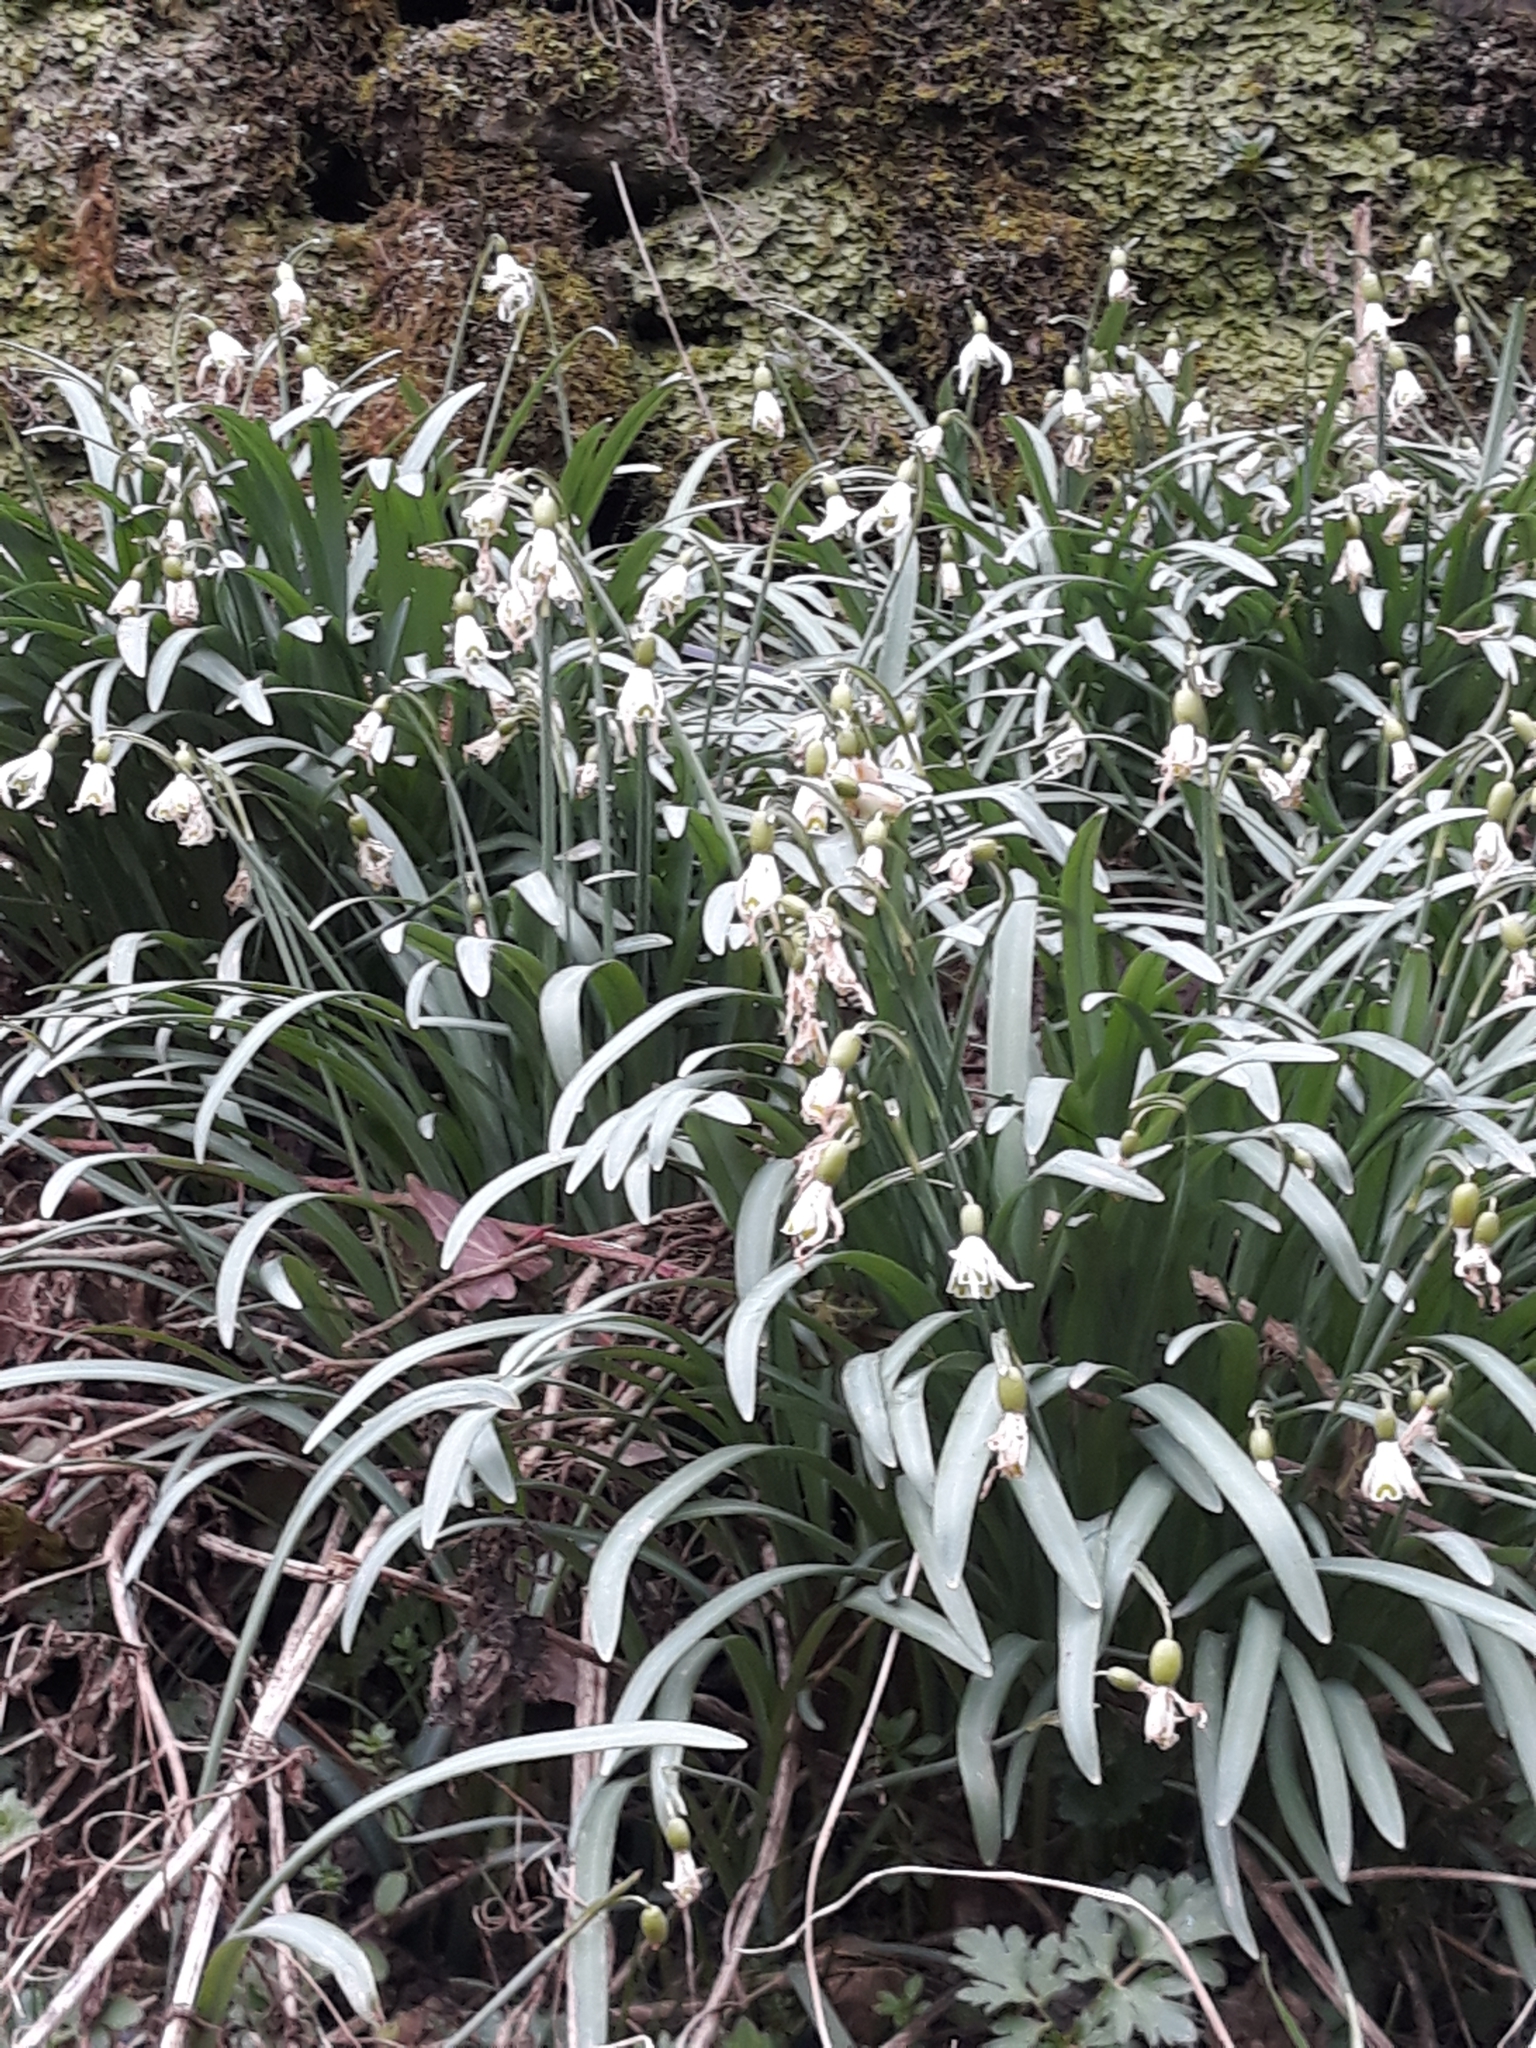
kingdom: Plantae
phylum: Tracheophyta
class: Liliopsida
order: Asparagales
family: Amaryllidaceae
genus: Galanthus
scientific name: Galanthus nivalis
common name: Snowdrop
